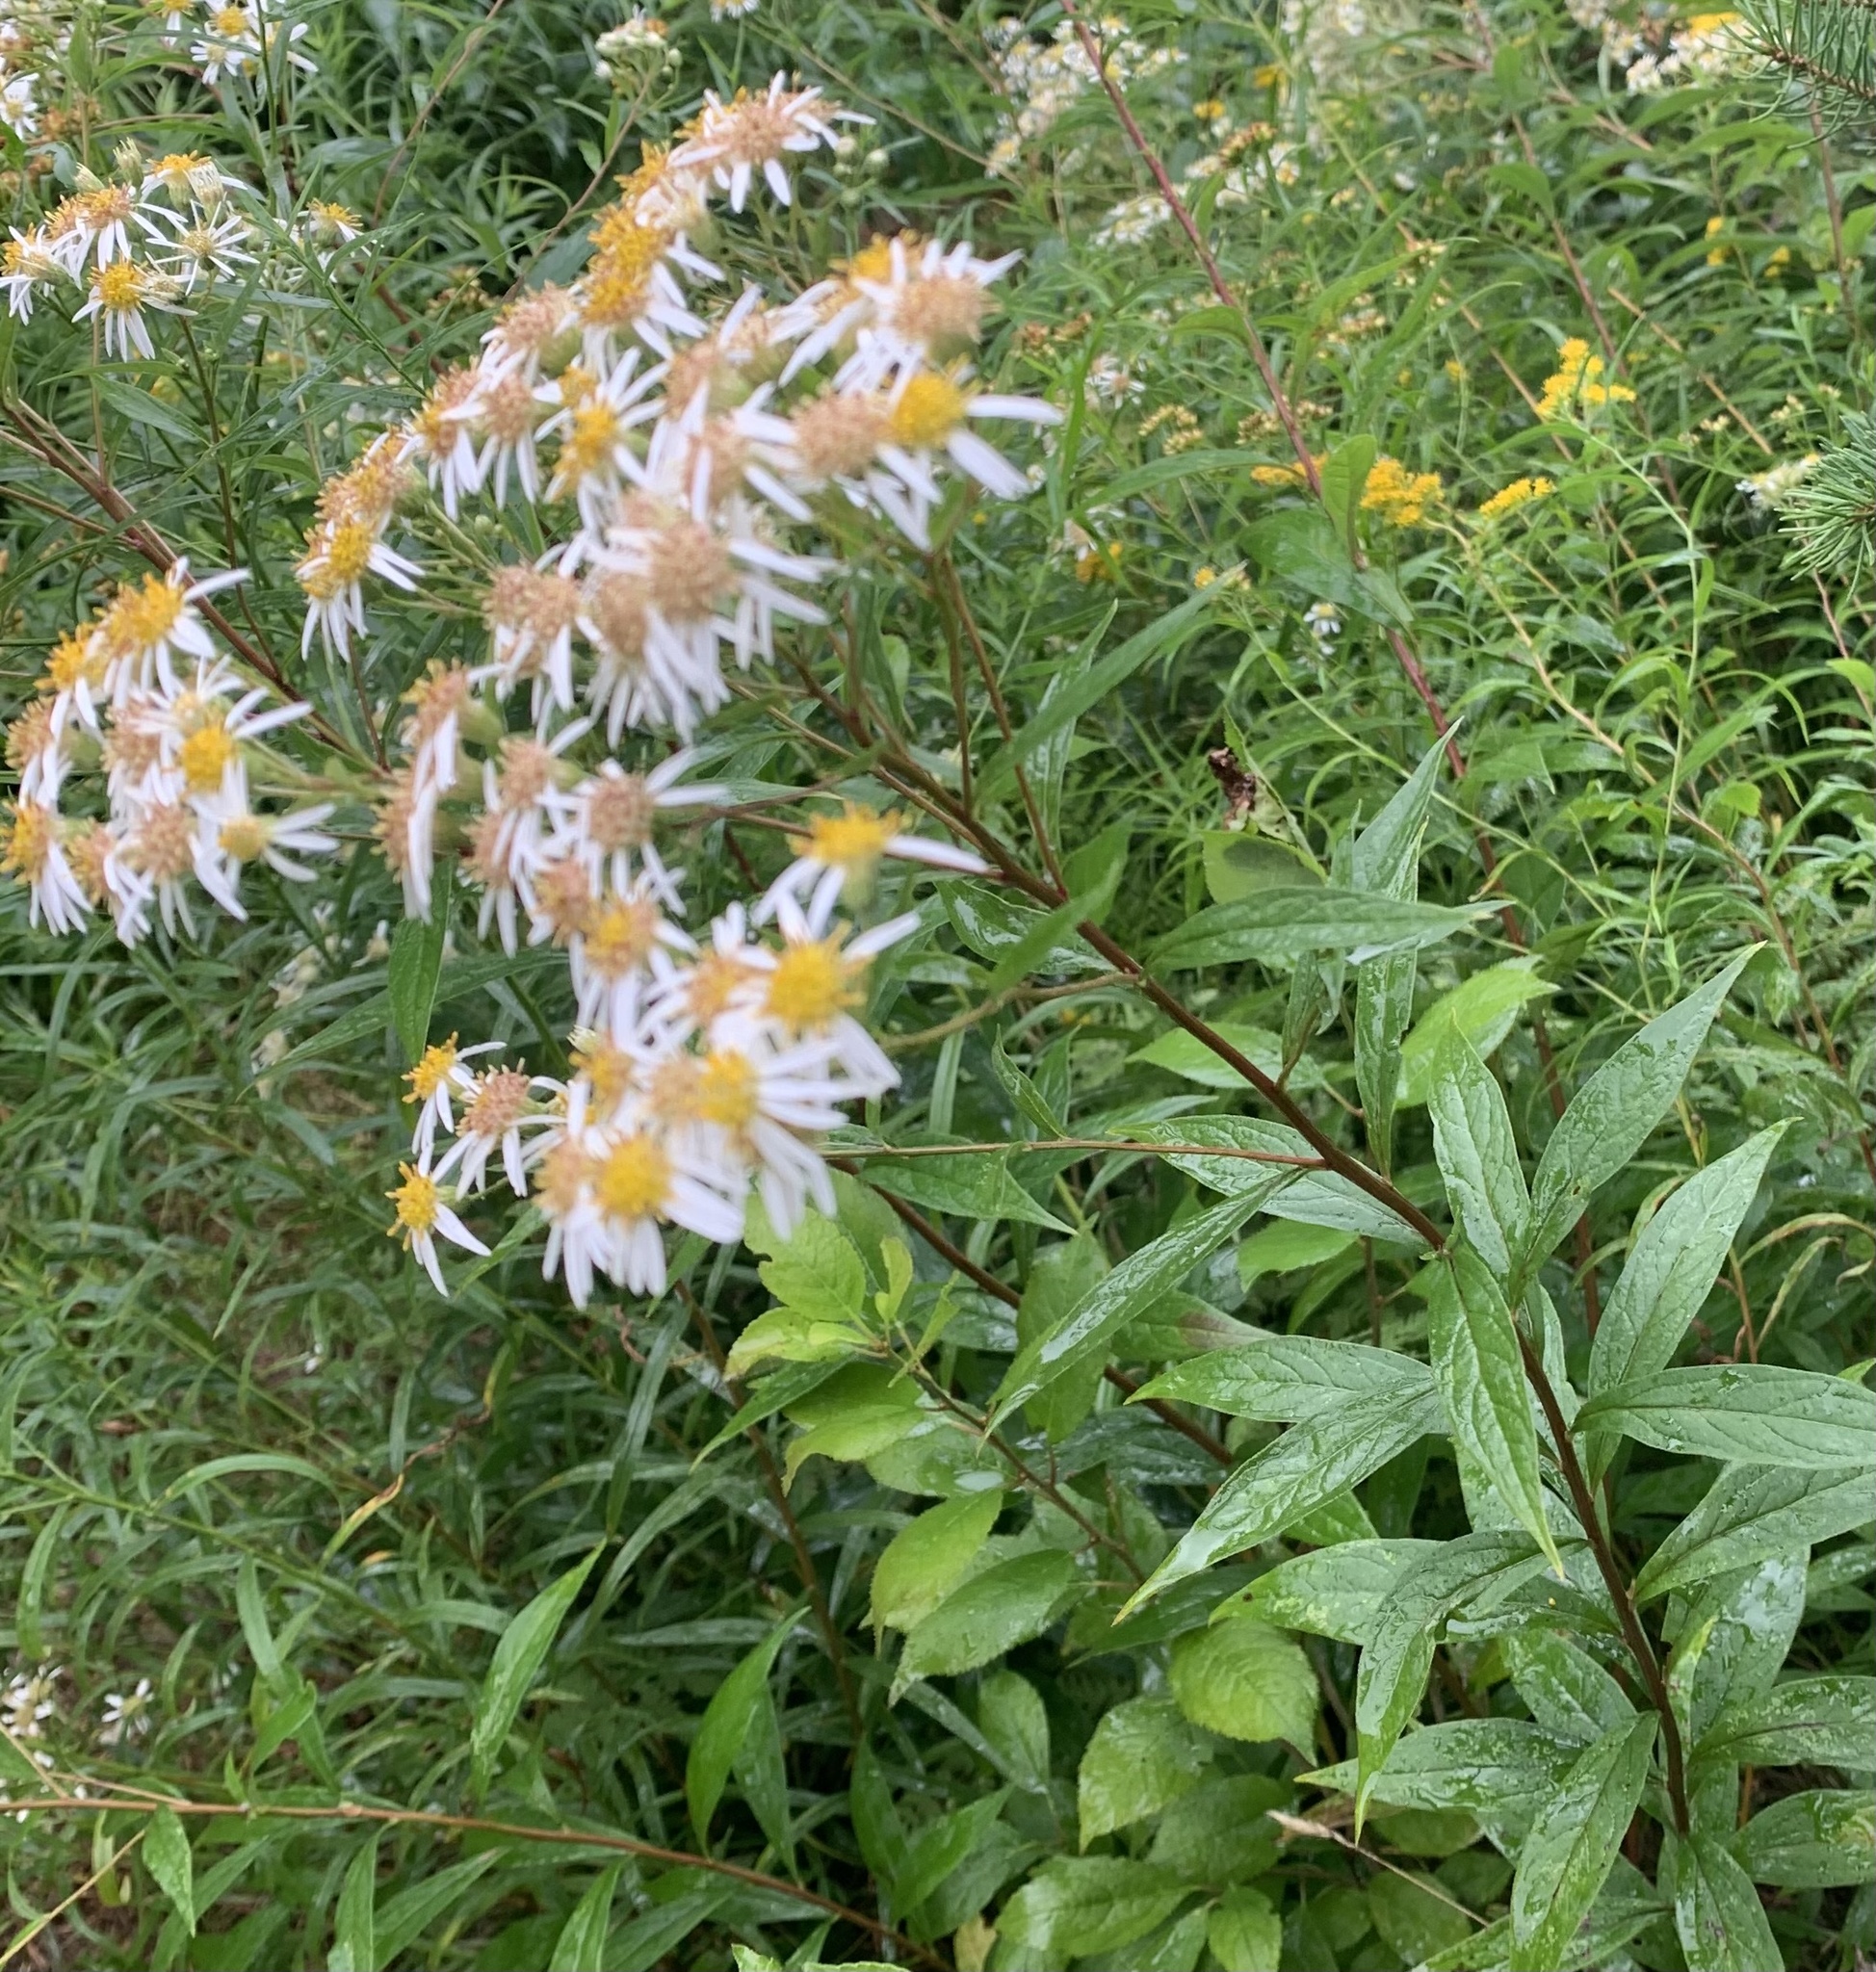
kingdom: Plantae
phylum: Tracheophyta
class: Magnoliopsida
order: Asterales
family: Asteraceae
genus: Doellingeria
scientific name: Doellingeria umbellata
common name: Flat-top white aster
